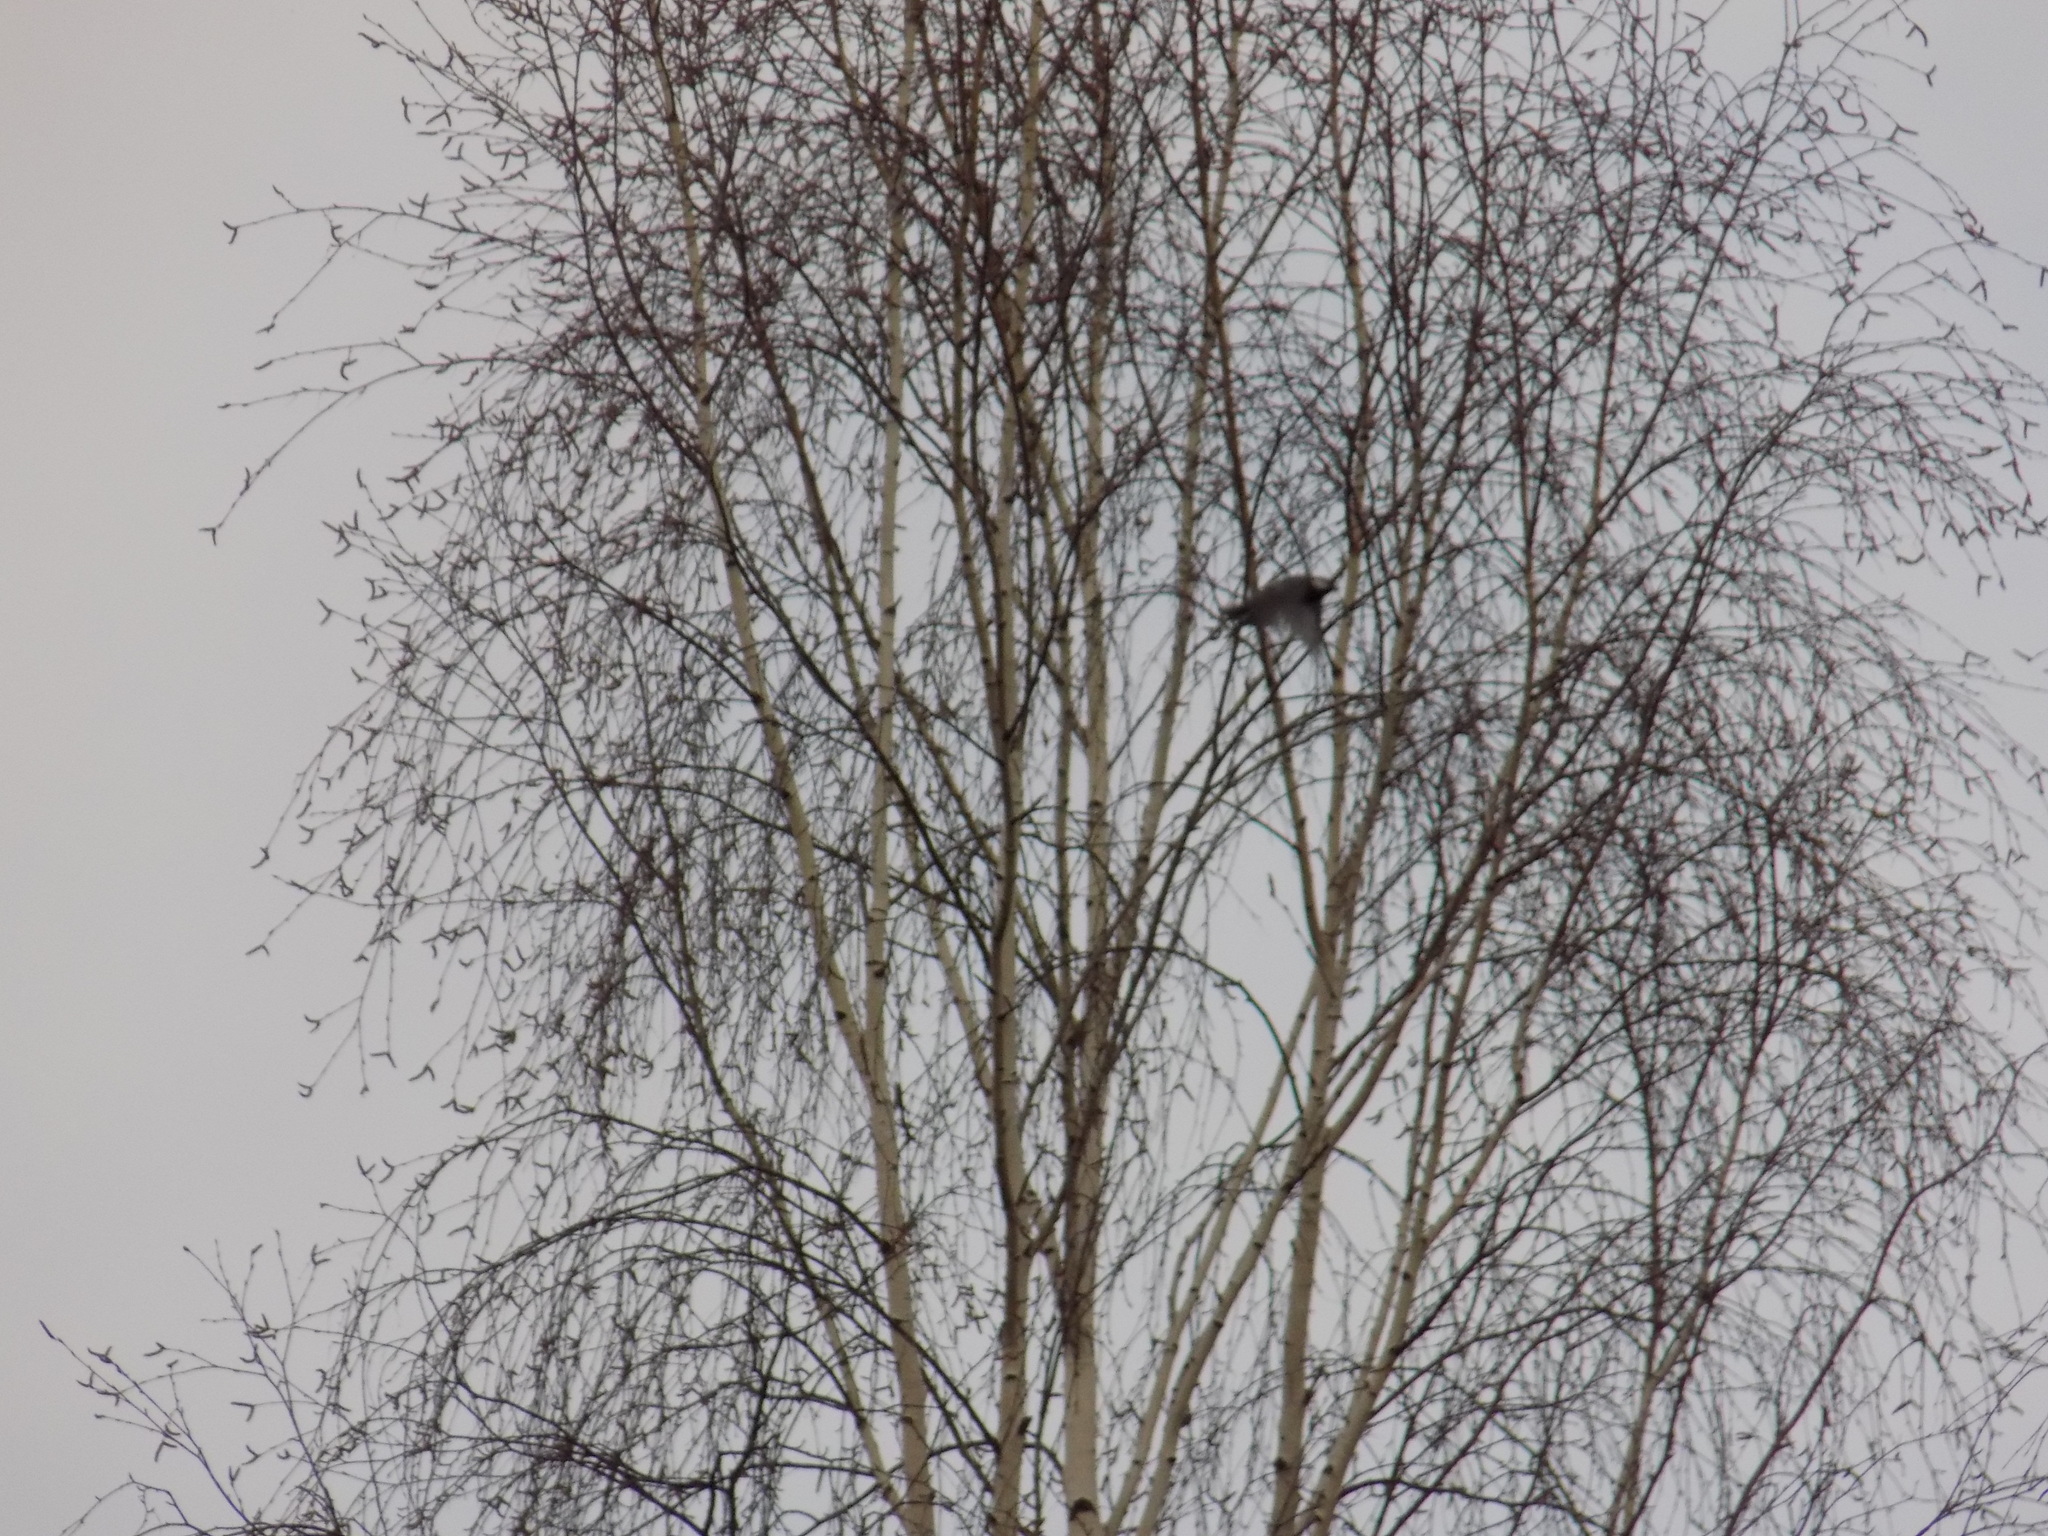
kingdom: Animalia
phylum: Chordata
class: Aves
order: Passeriformes
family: Paridae
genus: Parus
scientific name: Parus major
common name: Great tit
